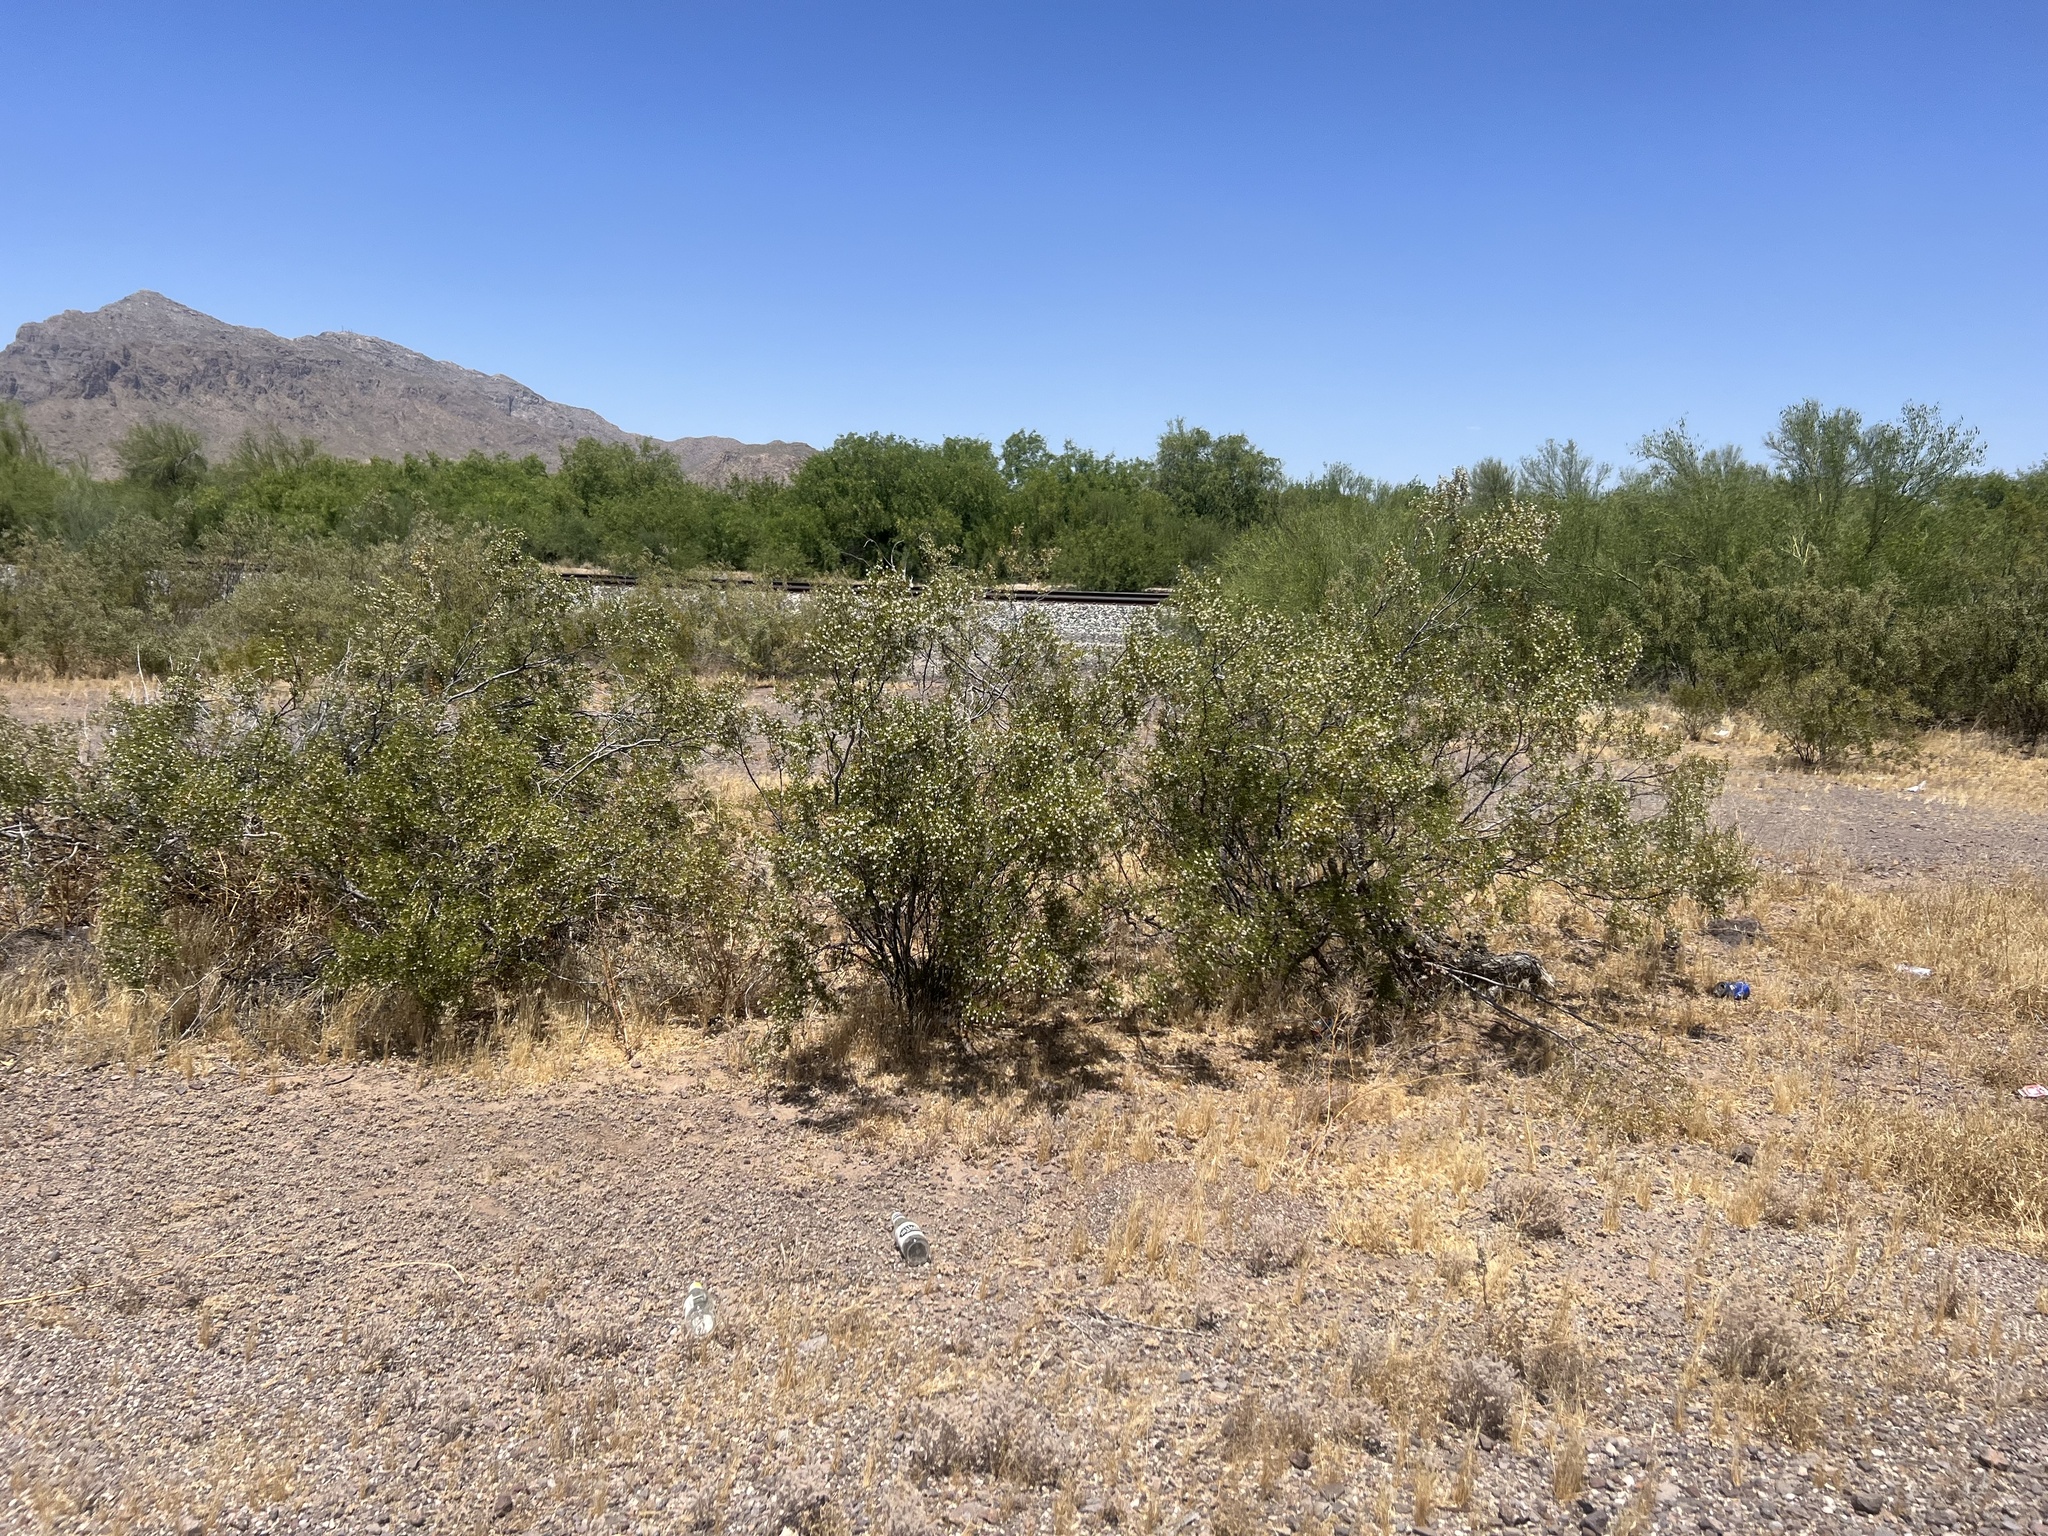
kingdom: Plantae
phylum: Tracheophyta
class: Magnoliopsida
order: Zygophyllales
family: Zygophyllaceae
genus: Larrea
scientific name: Larrea tridentata
